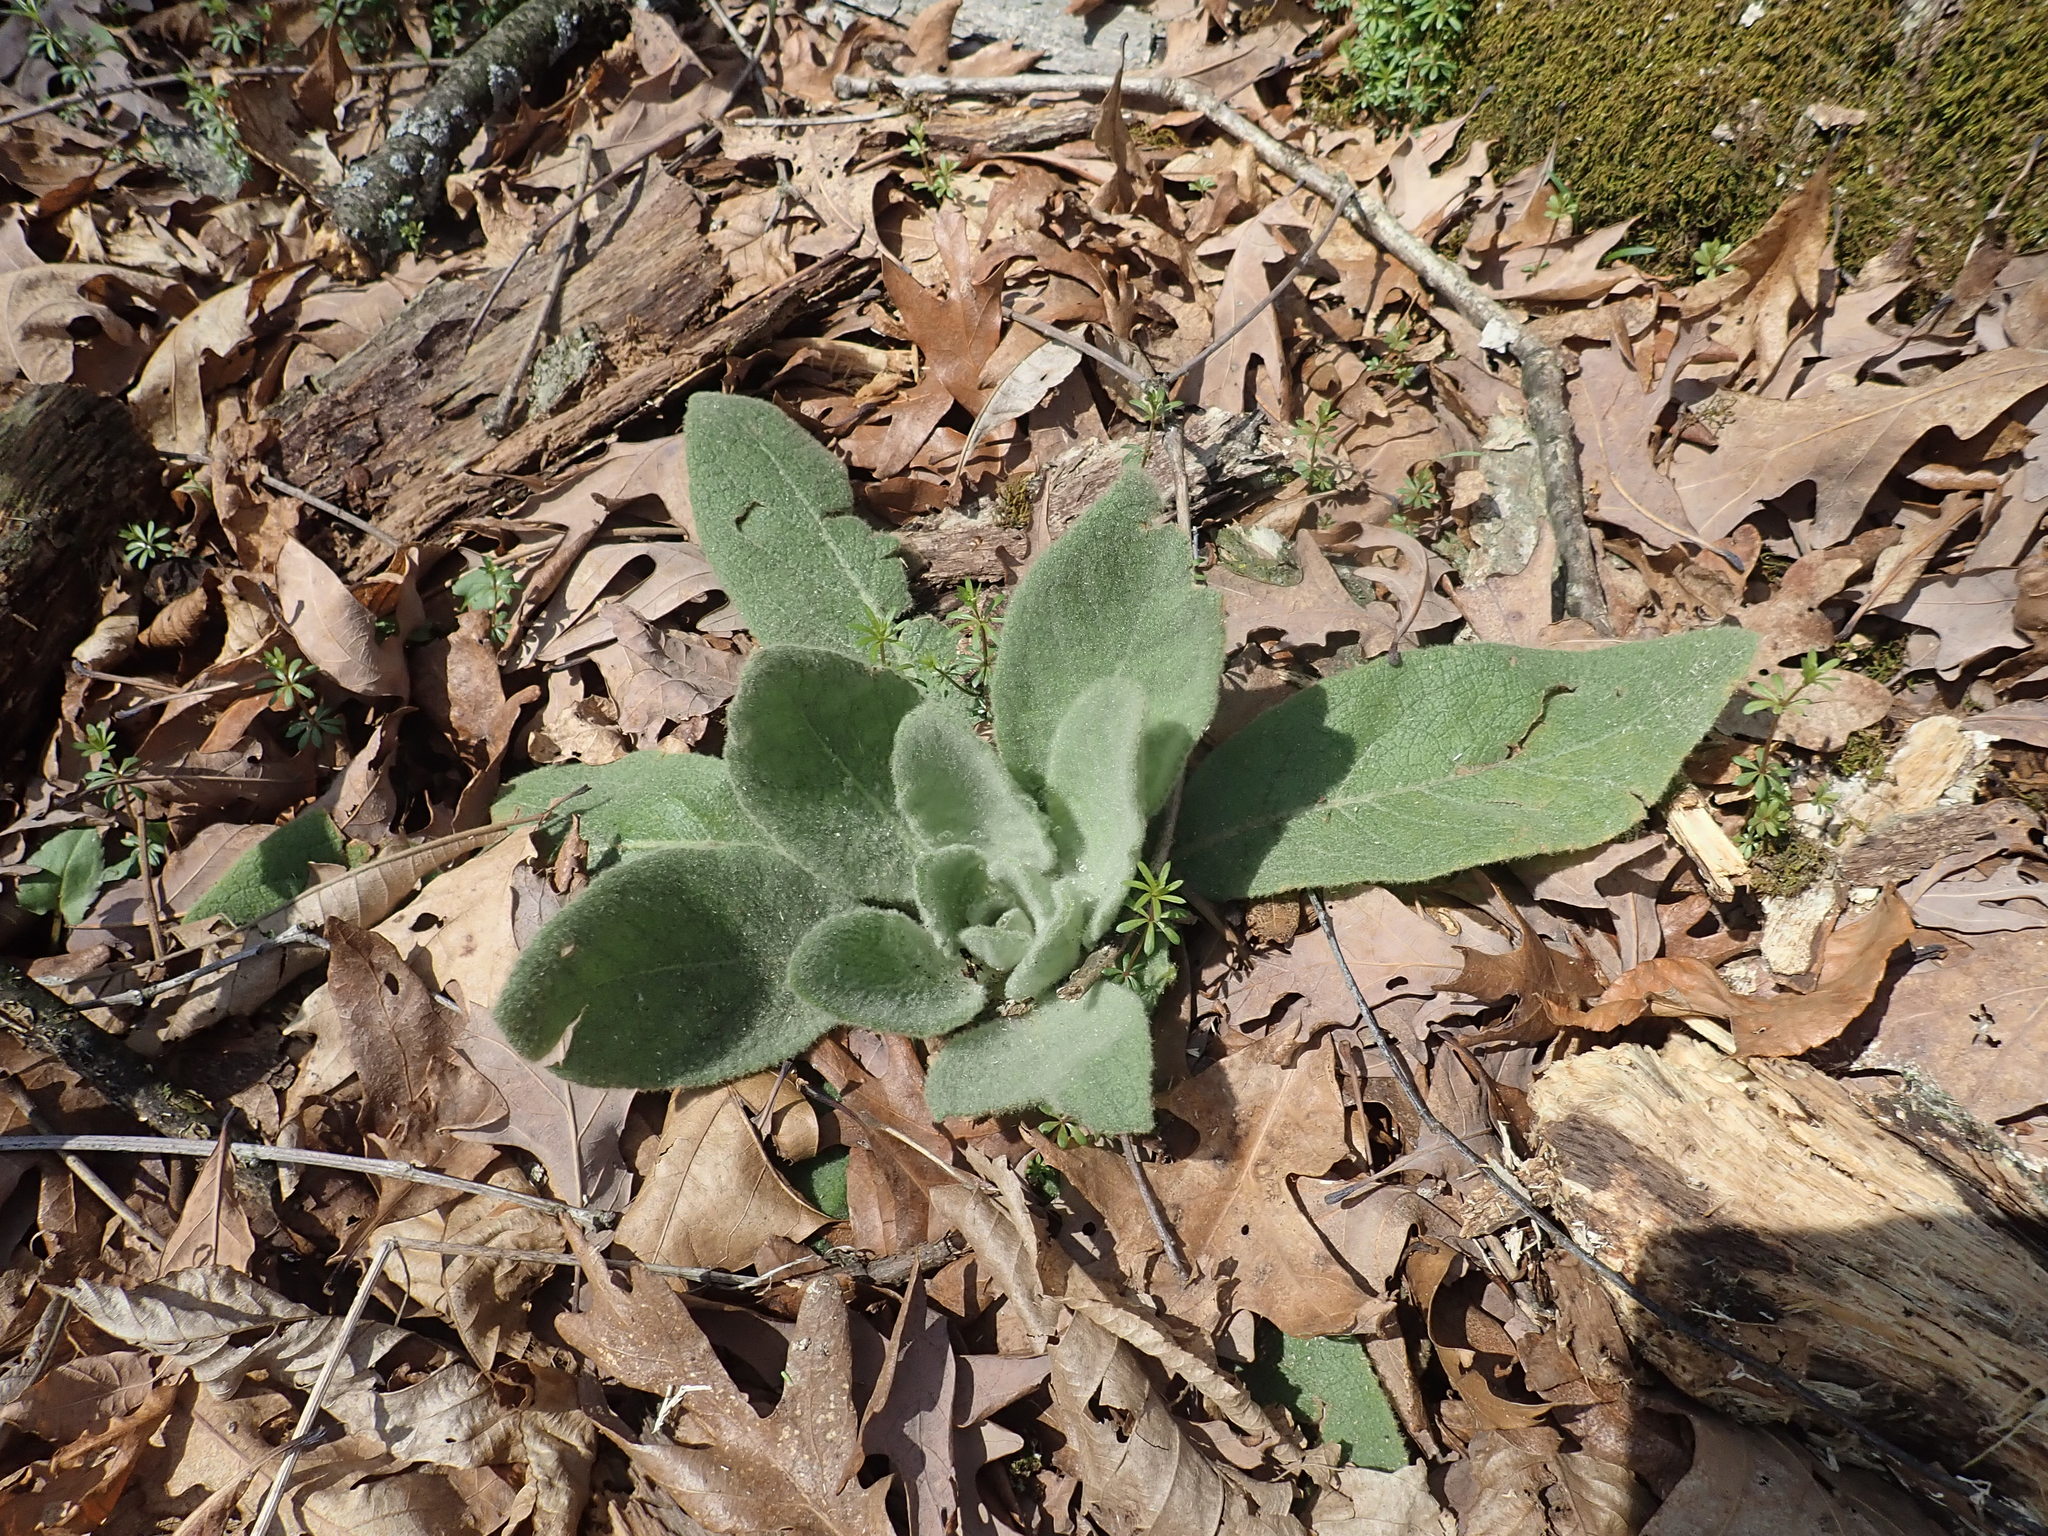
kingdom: Plantae
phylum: Tracheophyta
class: Magnoliopsida
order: Lamiales
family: Scrophulariaceae
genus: Verbascum
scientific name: Verbascum thapsus
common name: Common mullein
